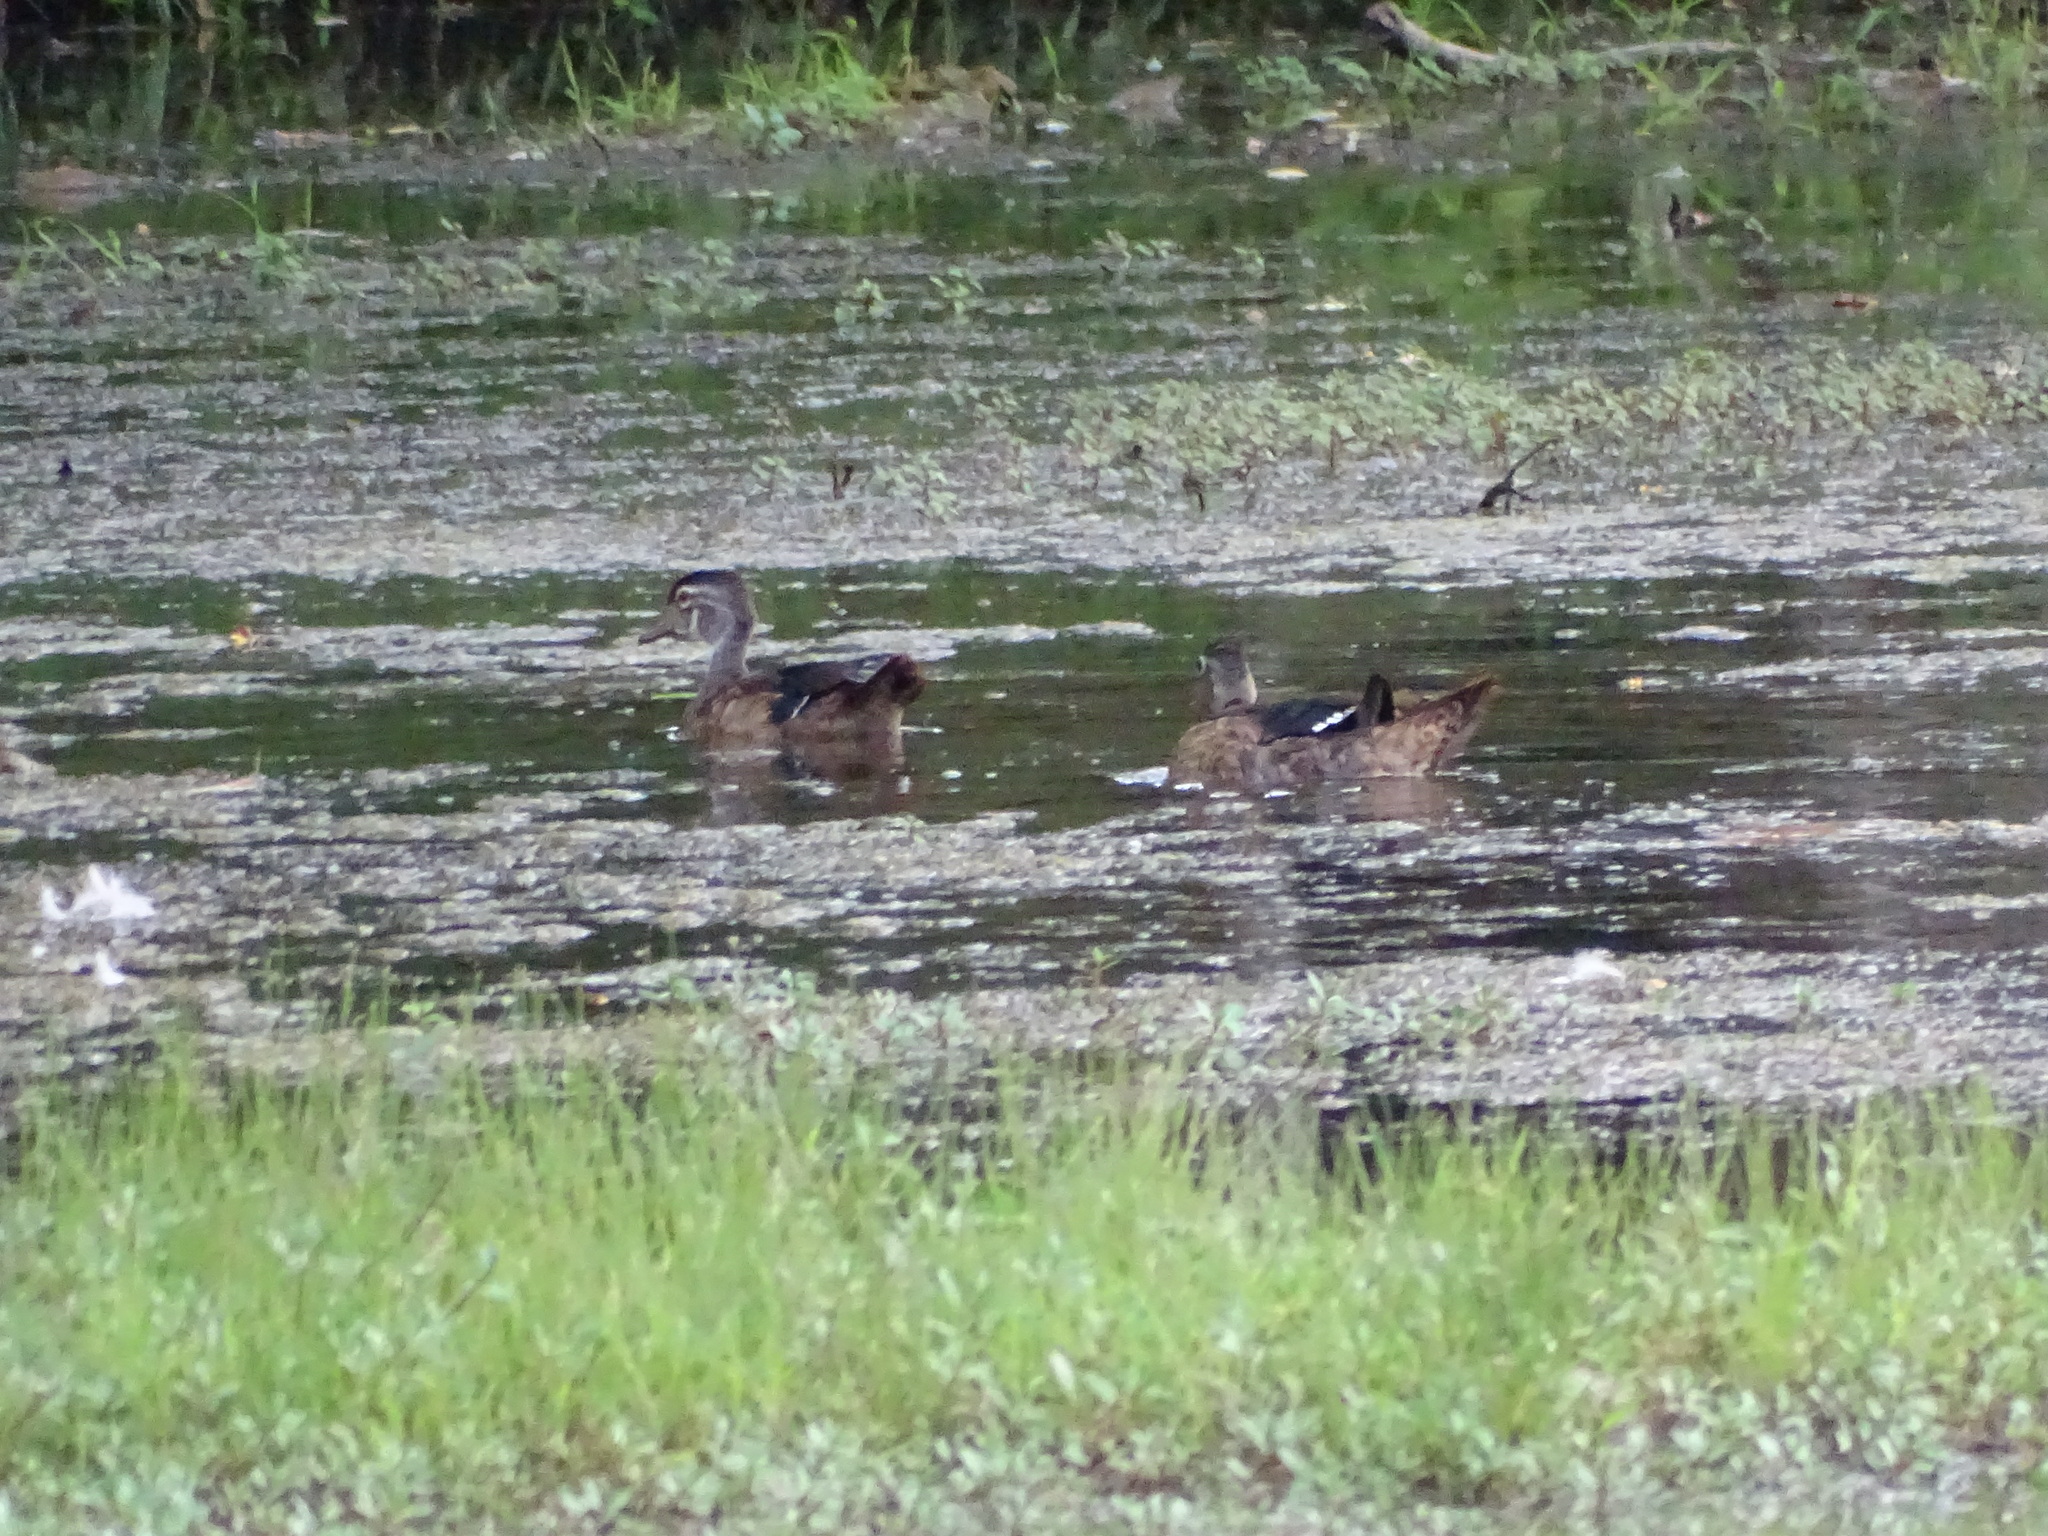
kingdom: Animalia
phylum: Chordata
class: Aves
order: Anseriformes
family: Anatidae
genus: Aix
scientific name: Aix sponsa
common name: Wood duck
